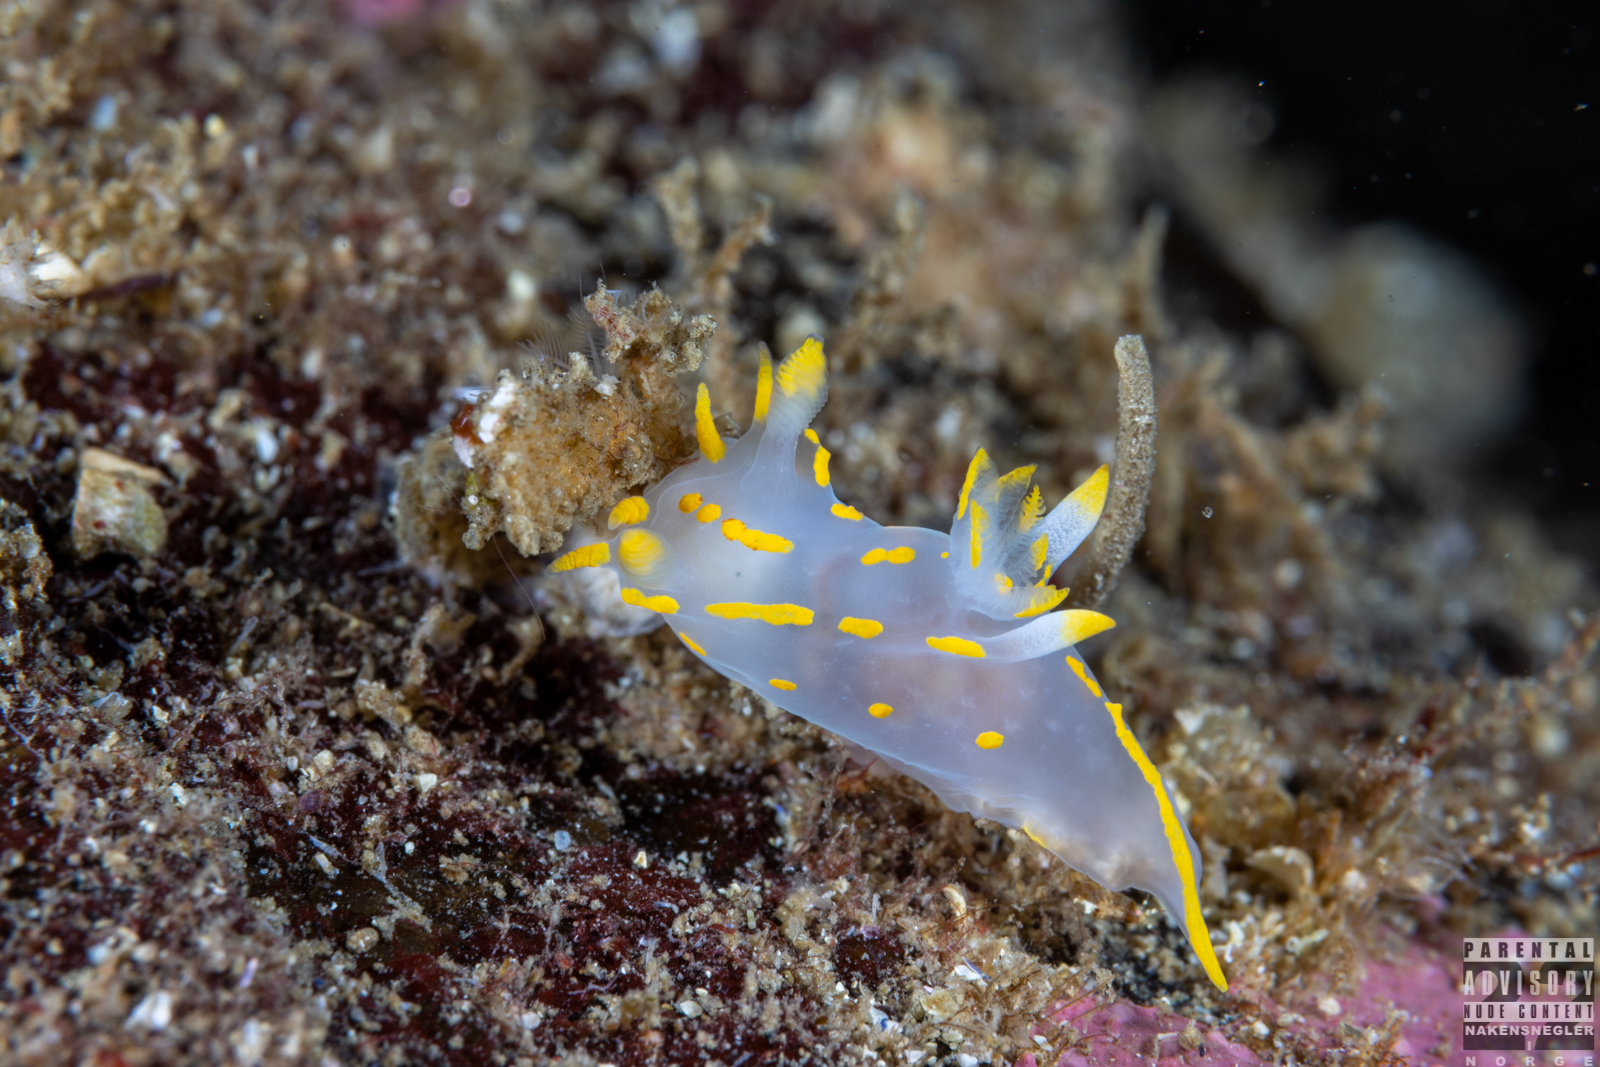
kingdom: Animalia
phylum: Mollusca
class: Gastropoda
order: Nudibranchia
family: Polyceridae
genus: Polycera
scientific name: Polycera quadrilineata
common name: Four-striped polycera
